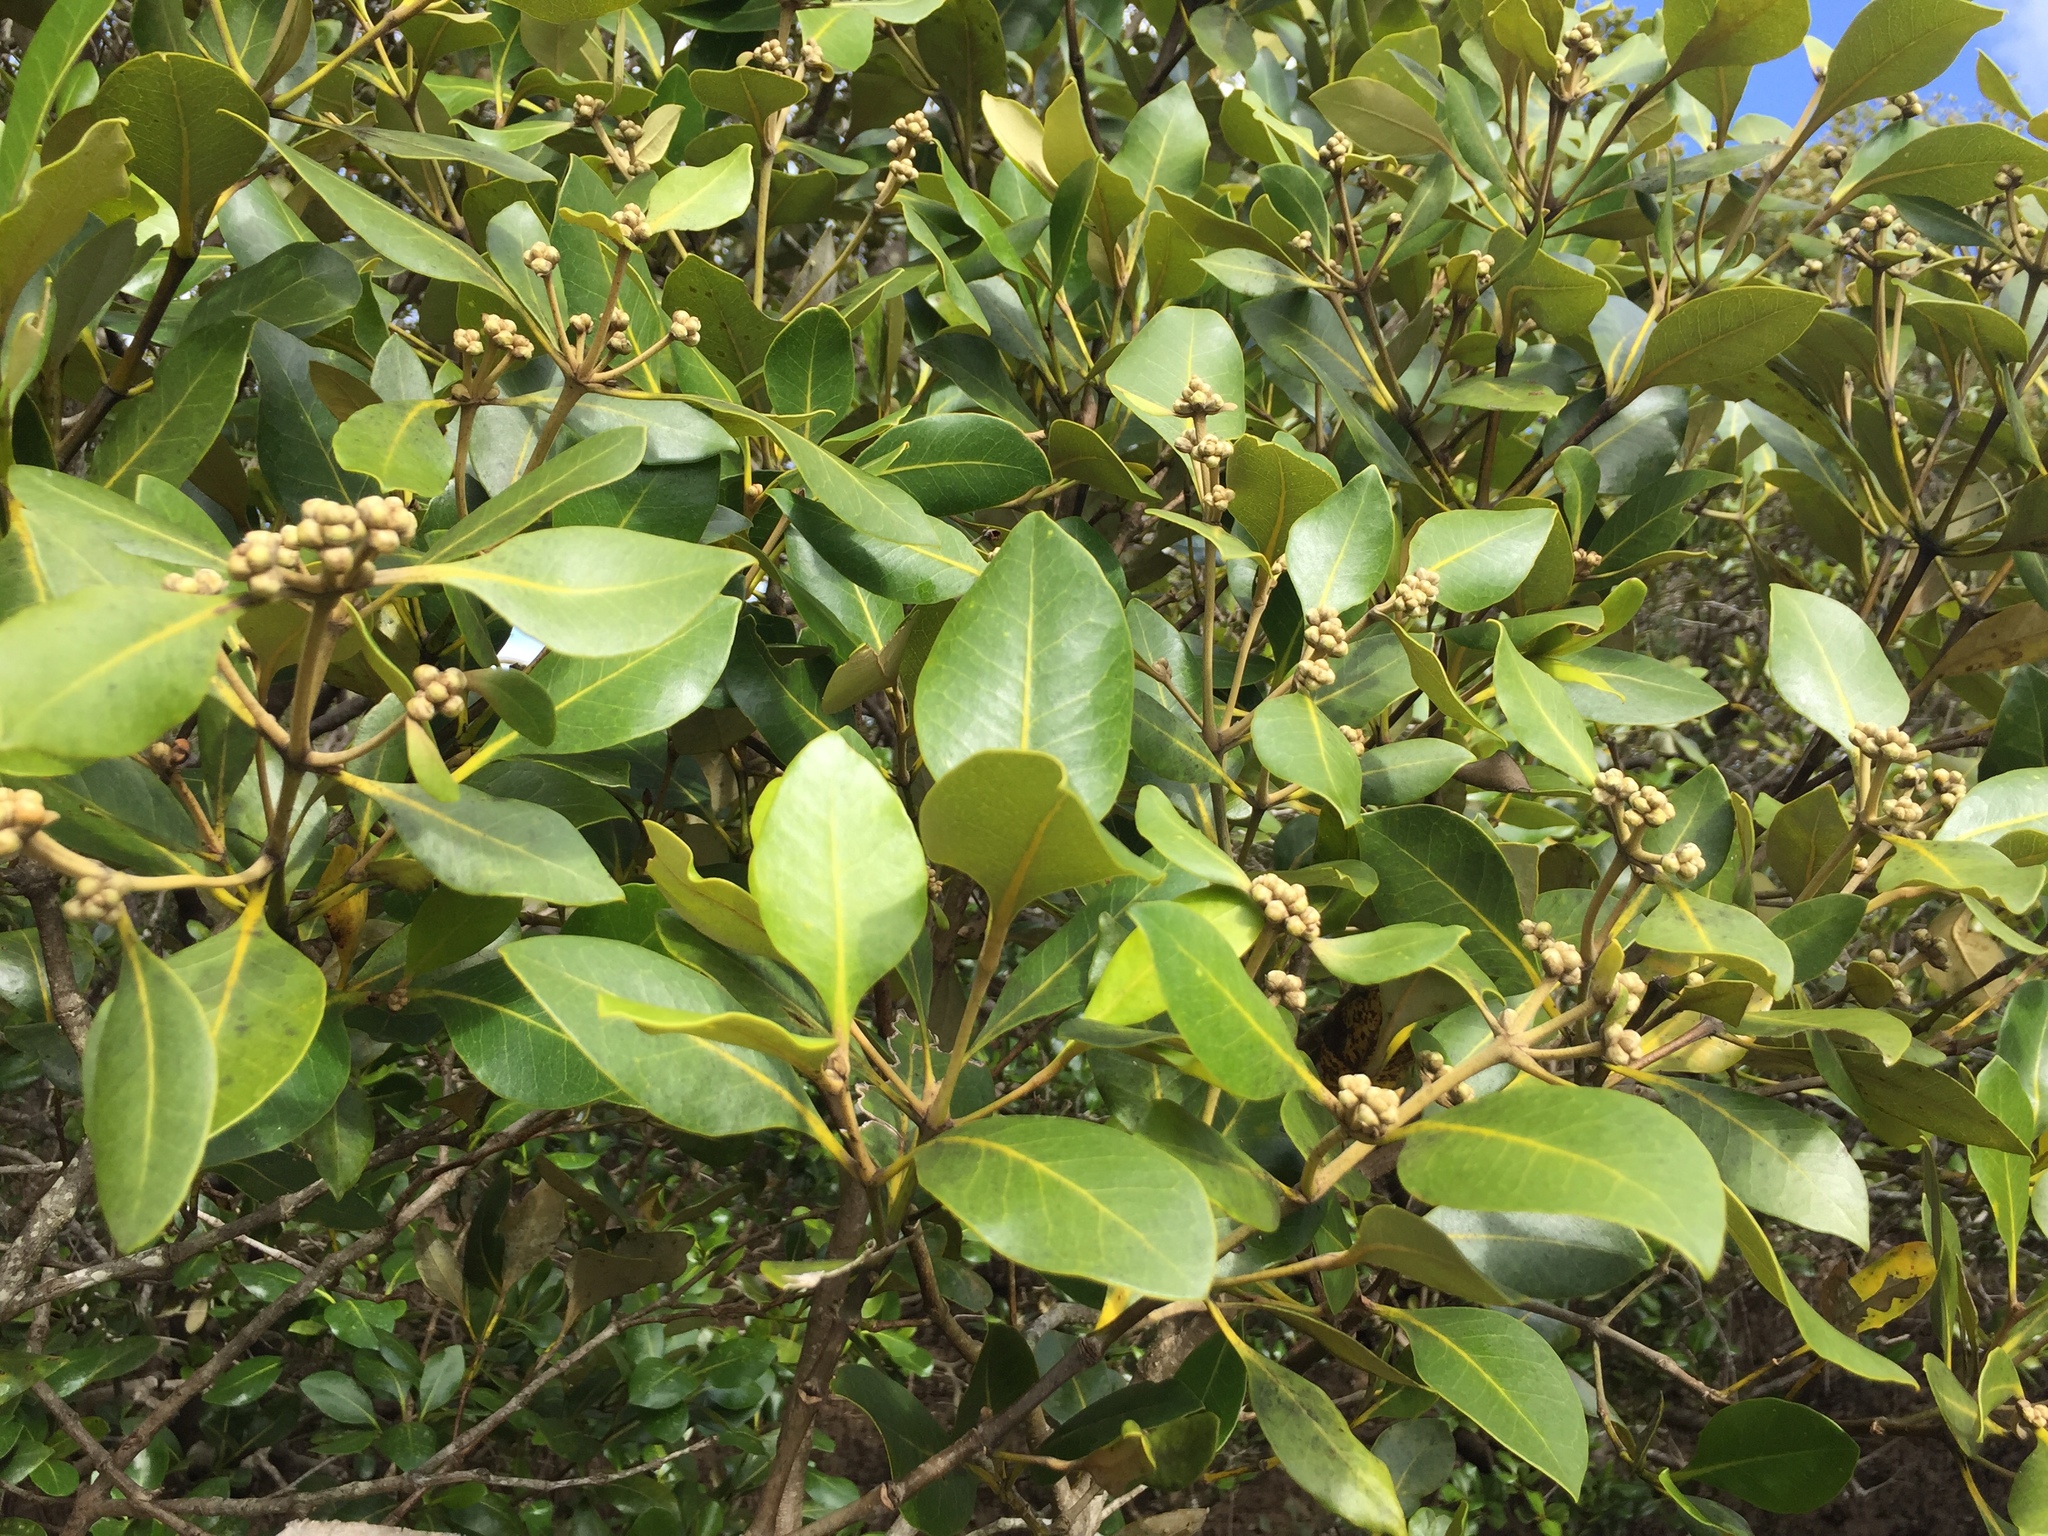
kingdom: Plantae
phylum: Tracheophyta
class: Magnoliopsida
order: Lamiales
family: Acanthaceae
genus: Avicennia
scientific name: Avicennia marina
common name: Gray mangrove
